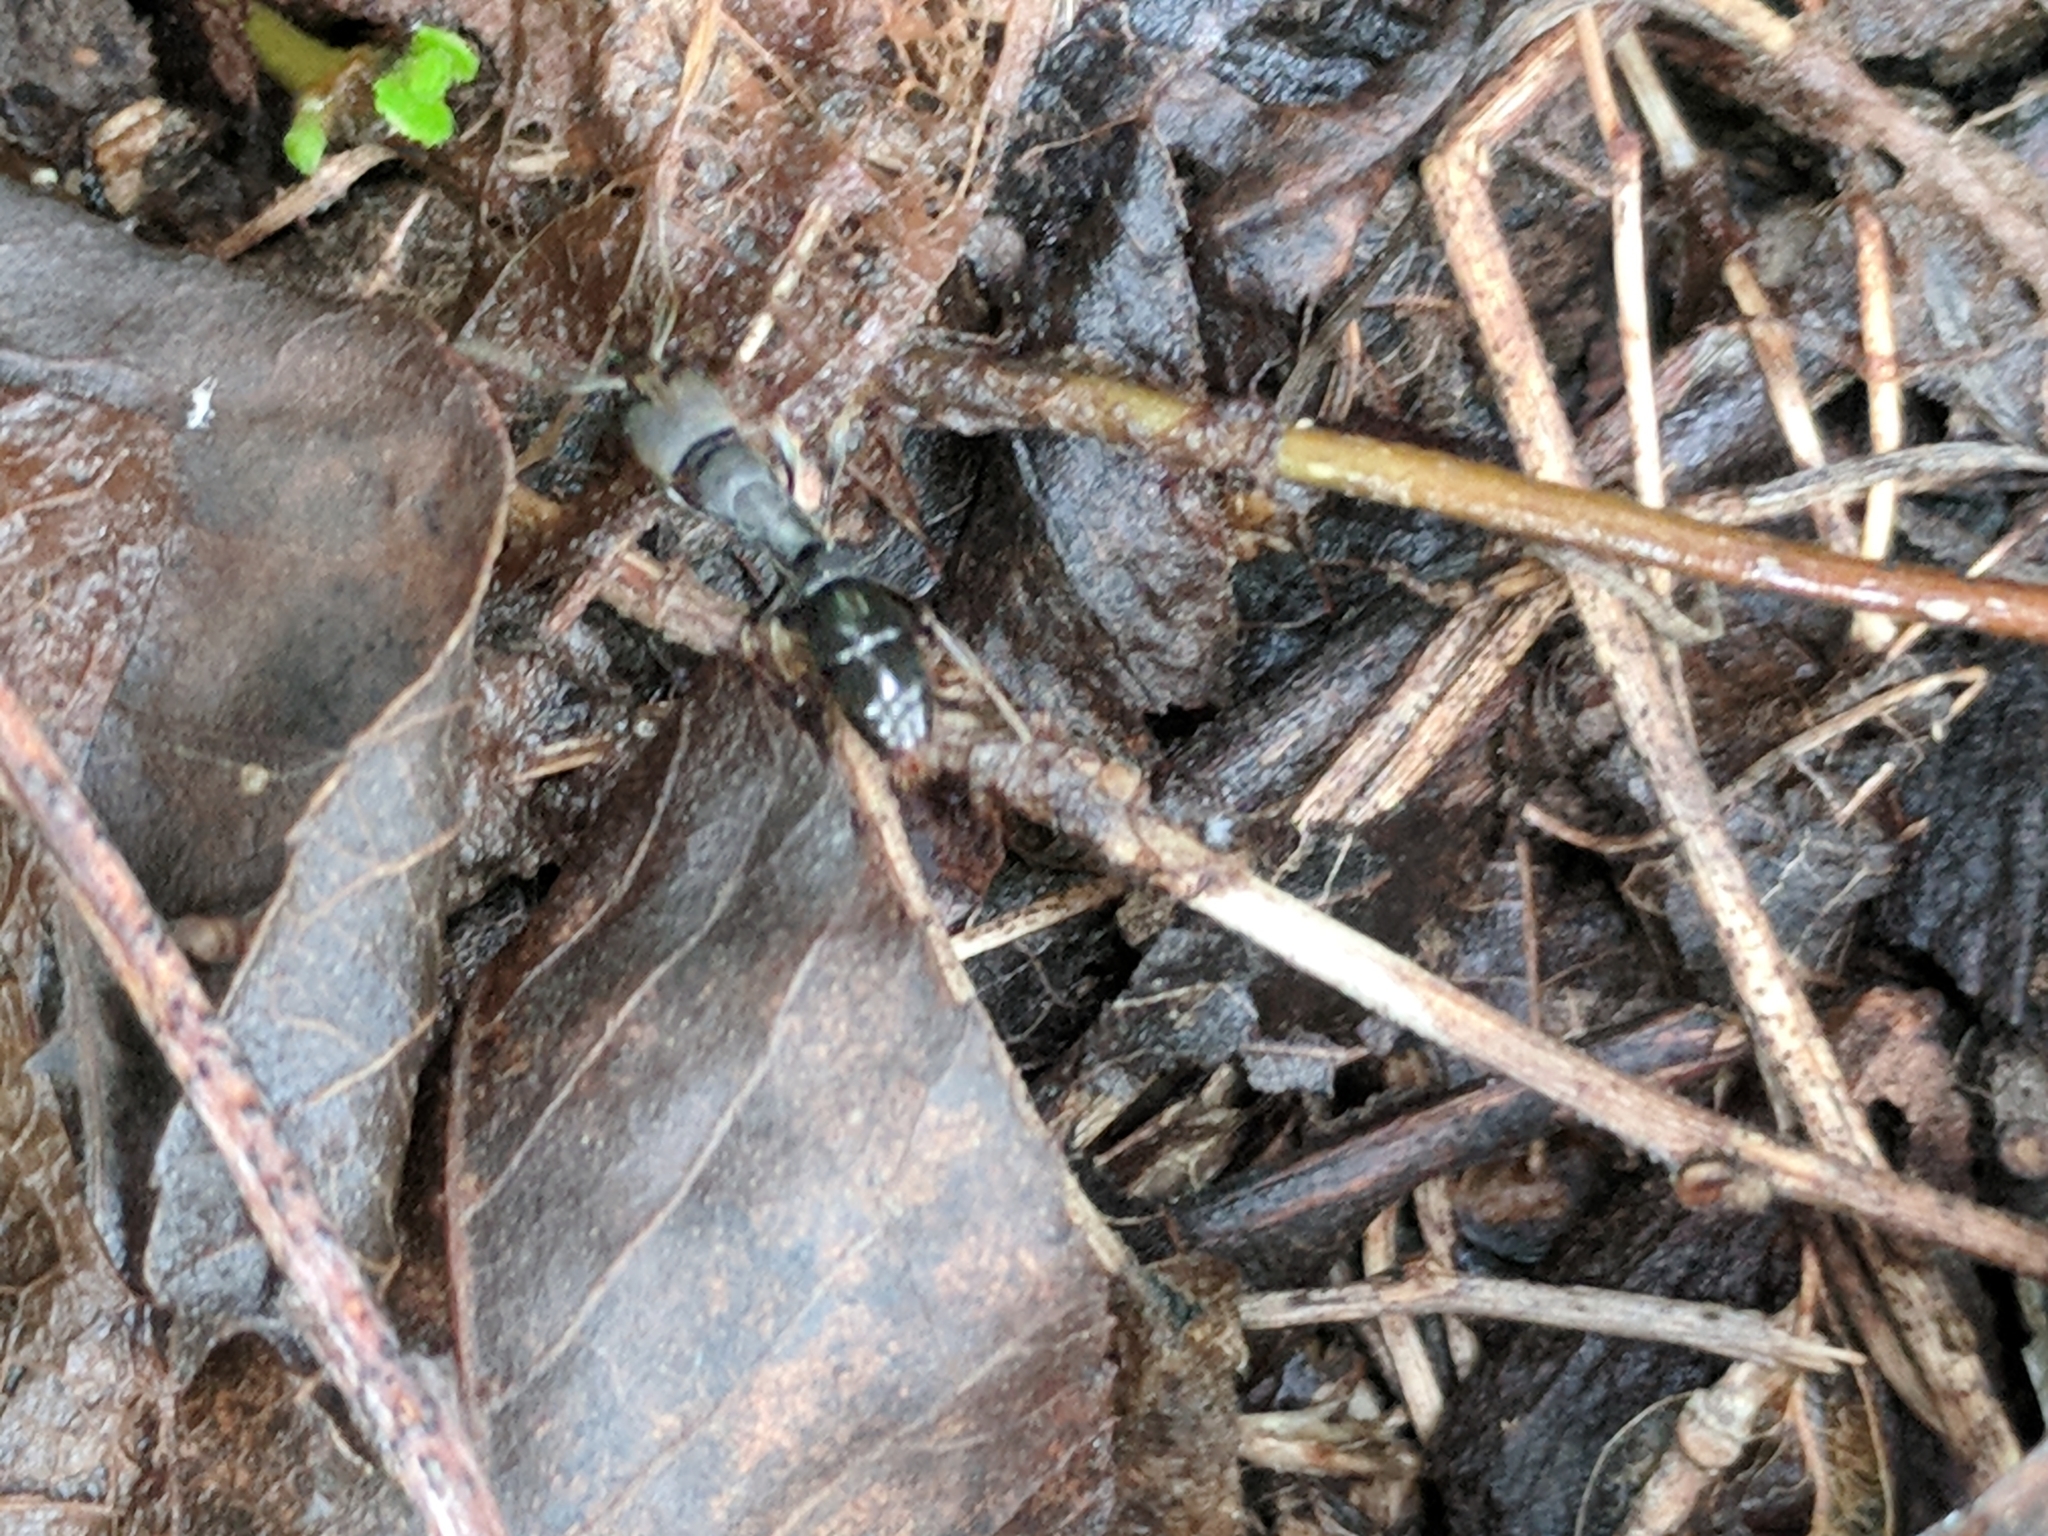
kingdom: Animalia
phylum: Arthropoda
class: Insecta
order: Hymenoptera
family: Formicidae
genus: Pachycondyla
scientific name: Pachycondyla harpax
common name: Ant
